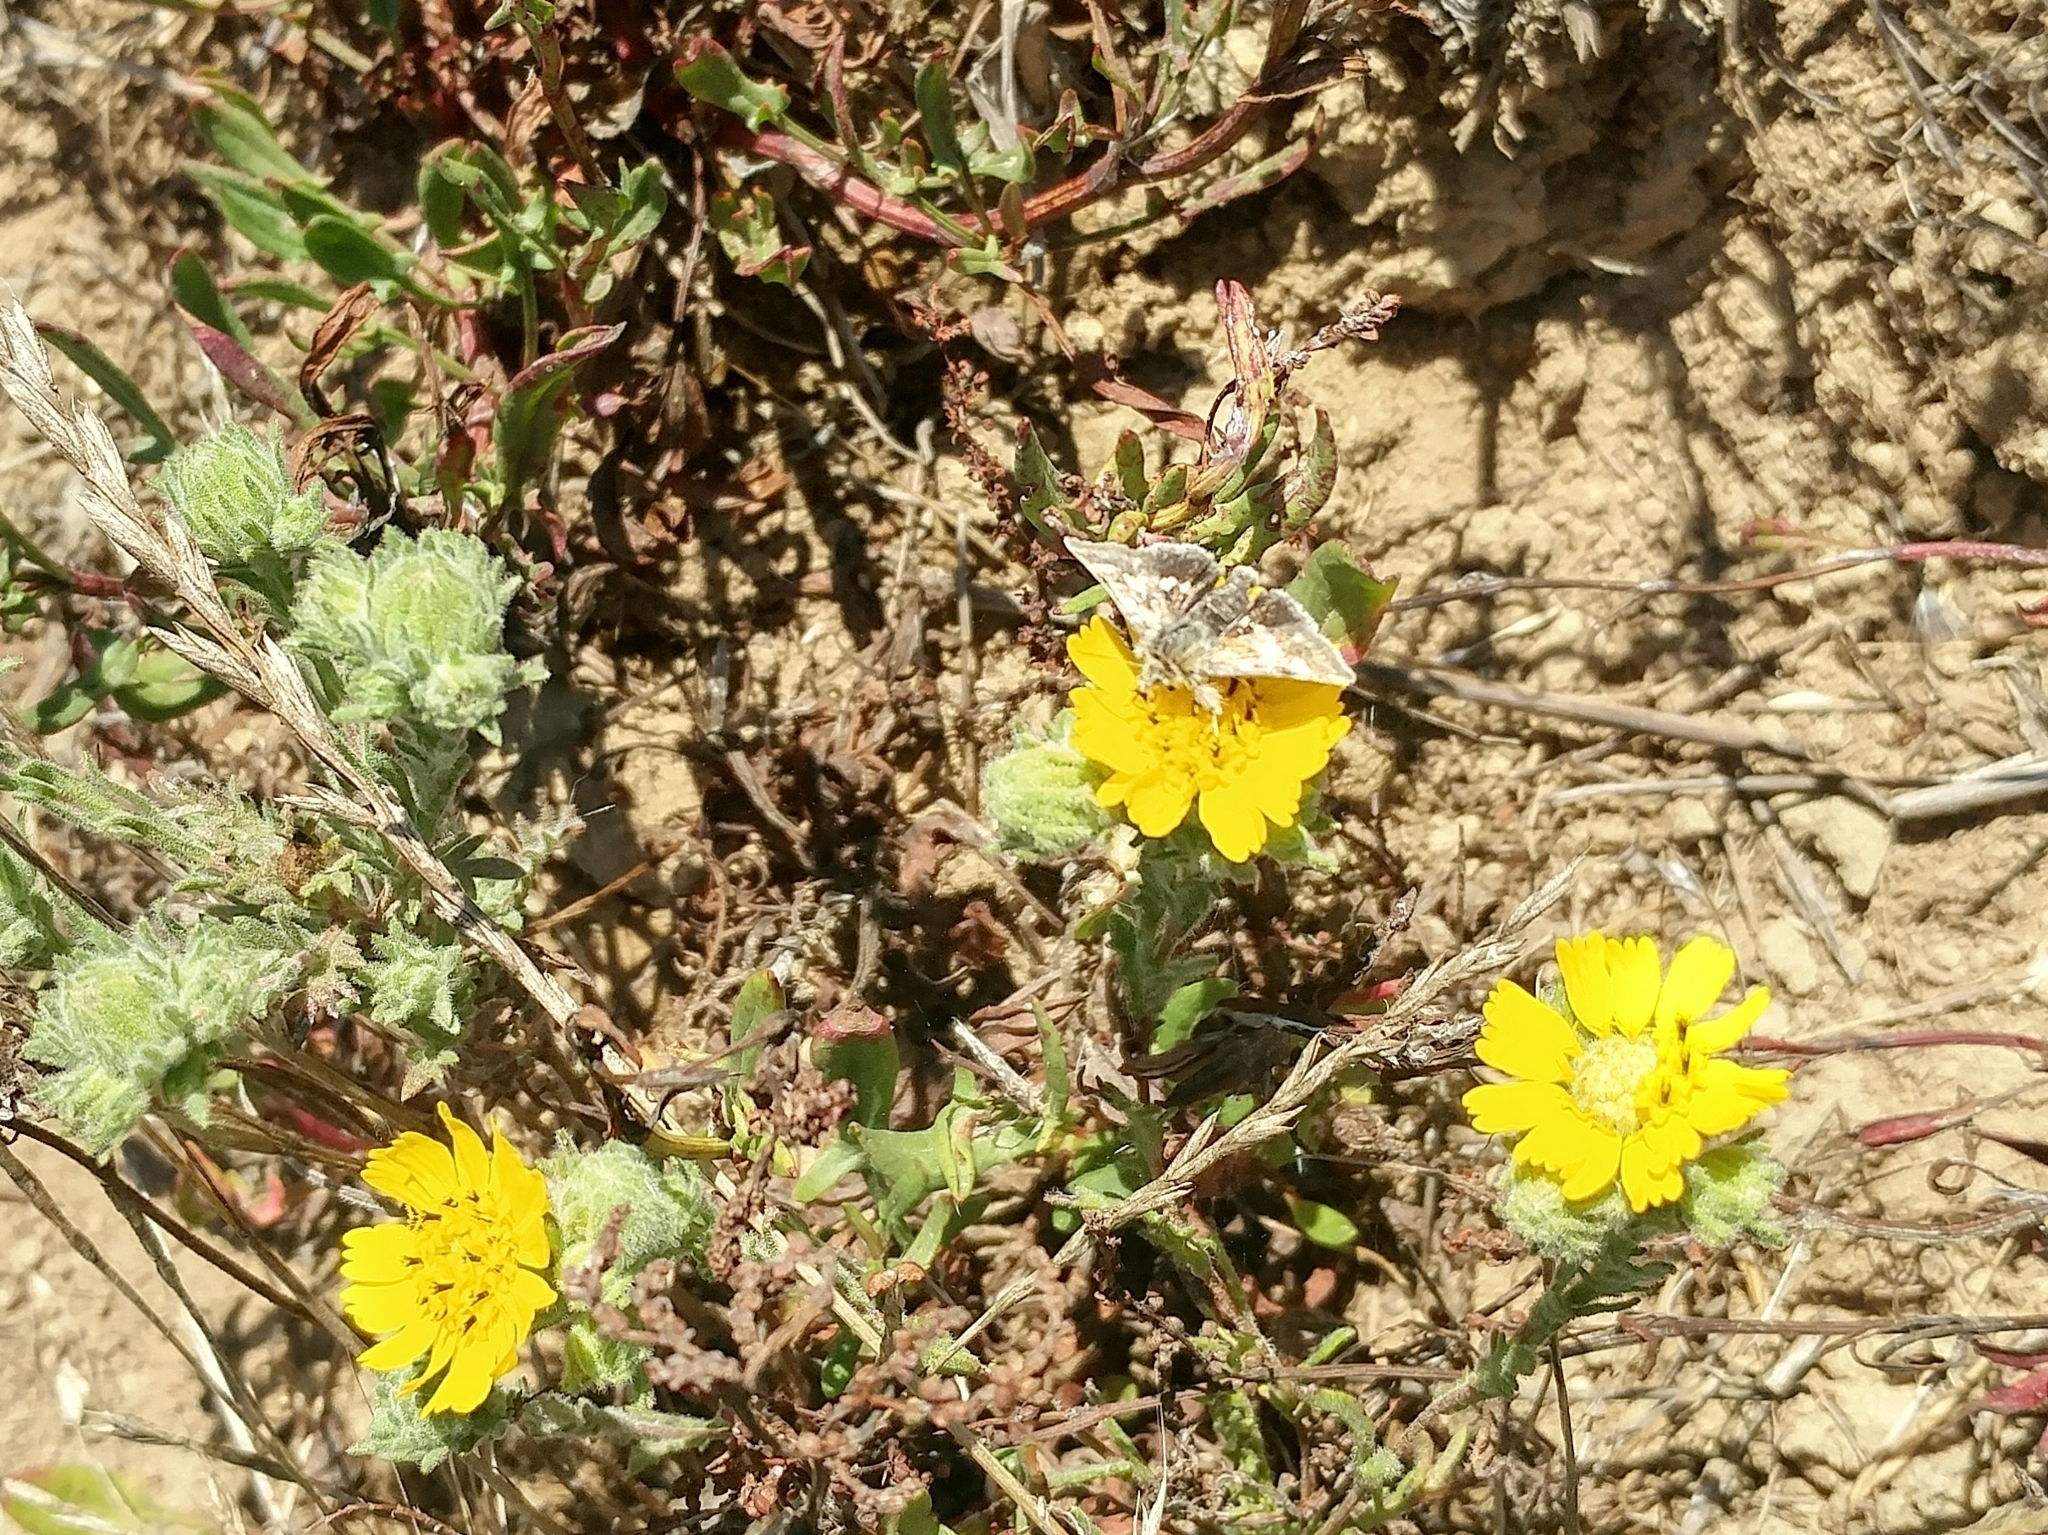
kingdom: Animalia
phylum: Arthropoda
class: Insecta
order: Lepidoptera
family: Noctuidae
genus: Heliothodes
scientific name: Heliothodes diminutiva
